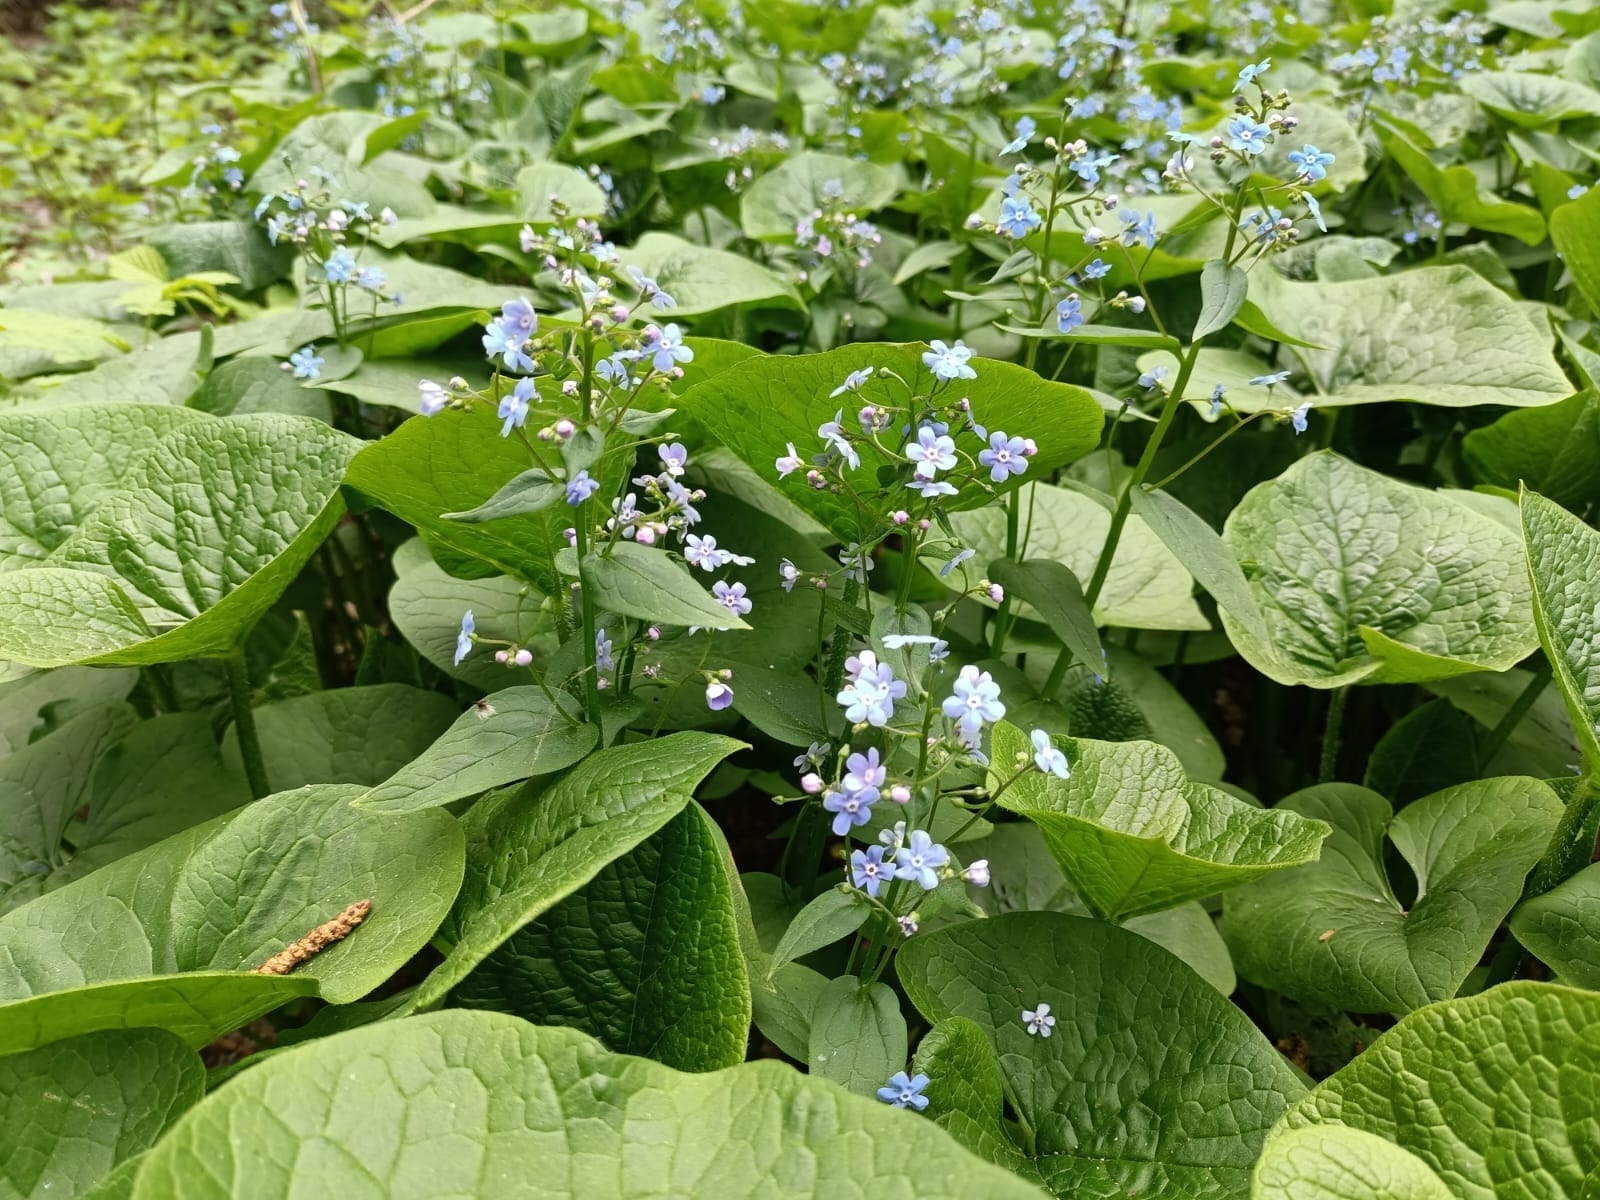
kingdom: Plantae
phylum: Tracheophyta
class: Magnoliopsida
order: Boraginales
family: Boraginaceae
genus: Brunnera
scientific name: Brunnera sibirica
